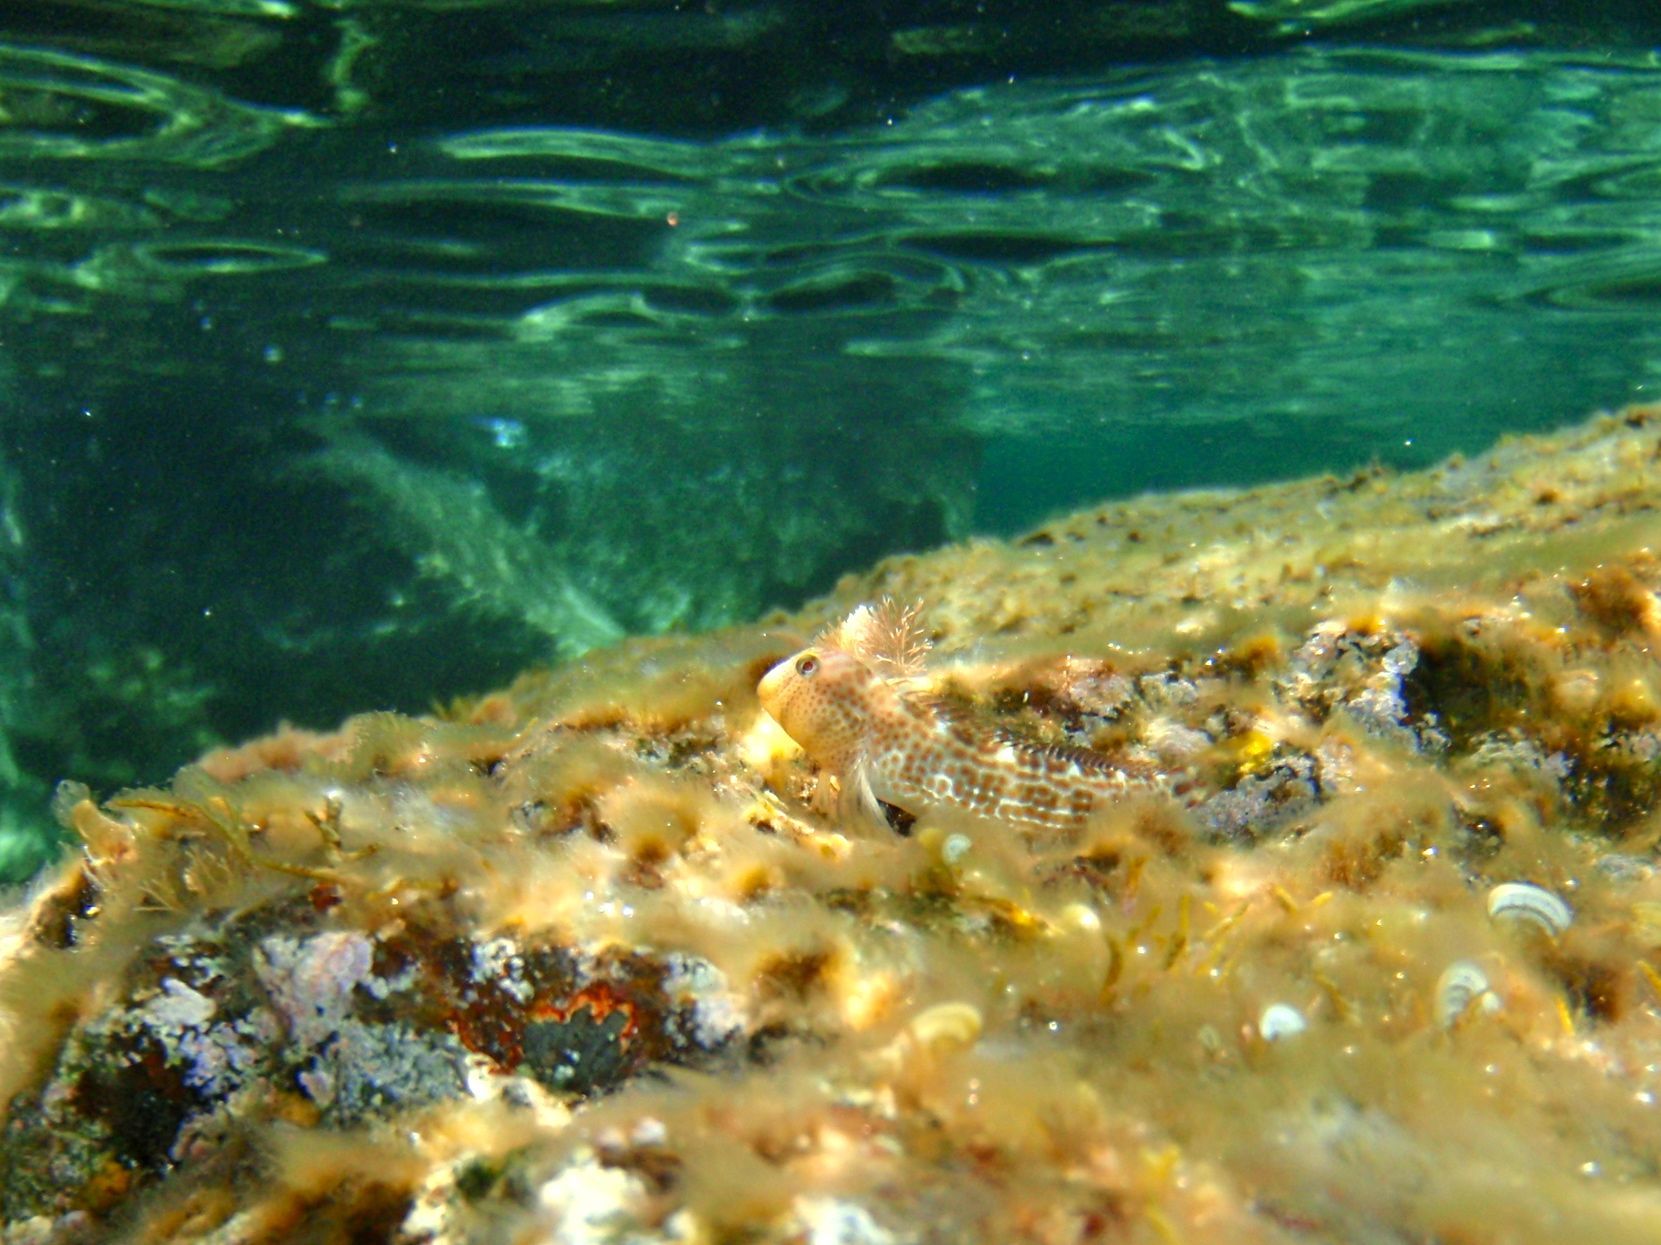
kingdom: Animalia
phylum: Chordata
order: Perciformes
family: Blenniidae
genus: Microlipophrys
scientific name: Microlipophrys canevae
